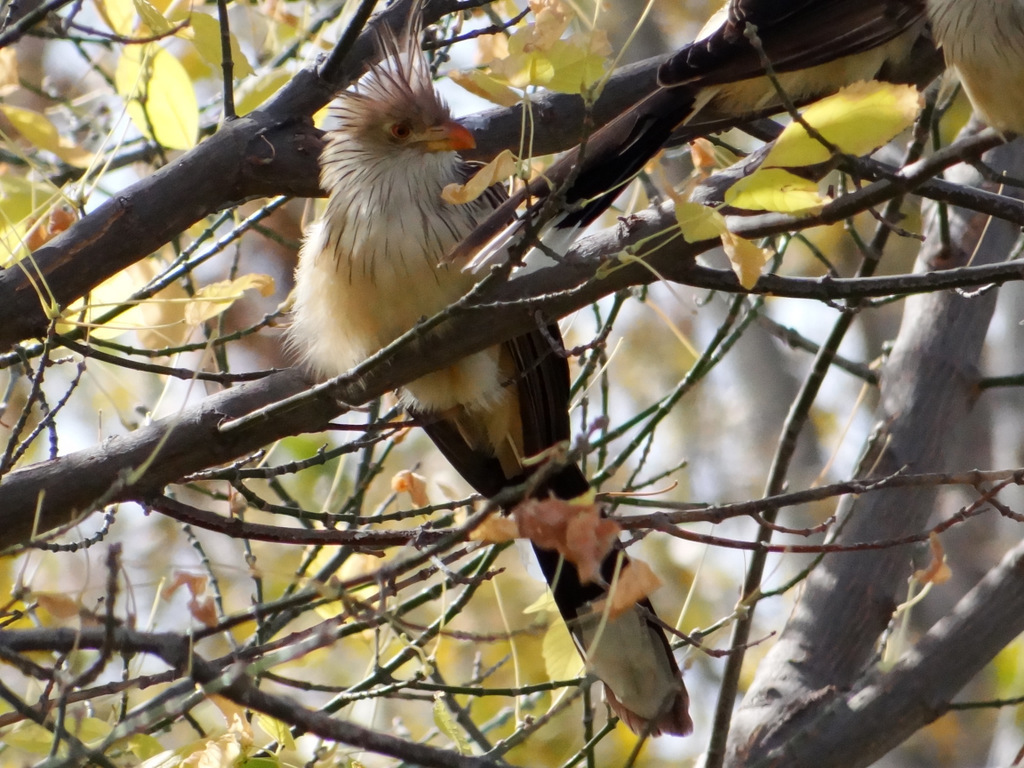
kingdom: Animalia
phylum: Chordata
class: Aves
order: Cuculiformes
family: Cuculidae
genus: Guira
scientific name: Guira guira
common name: Guira cuckoo
